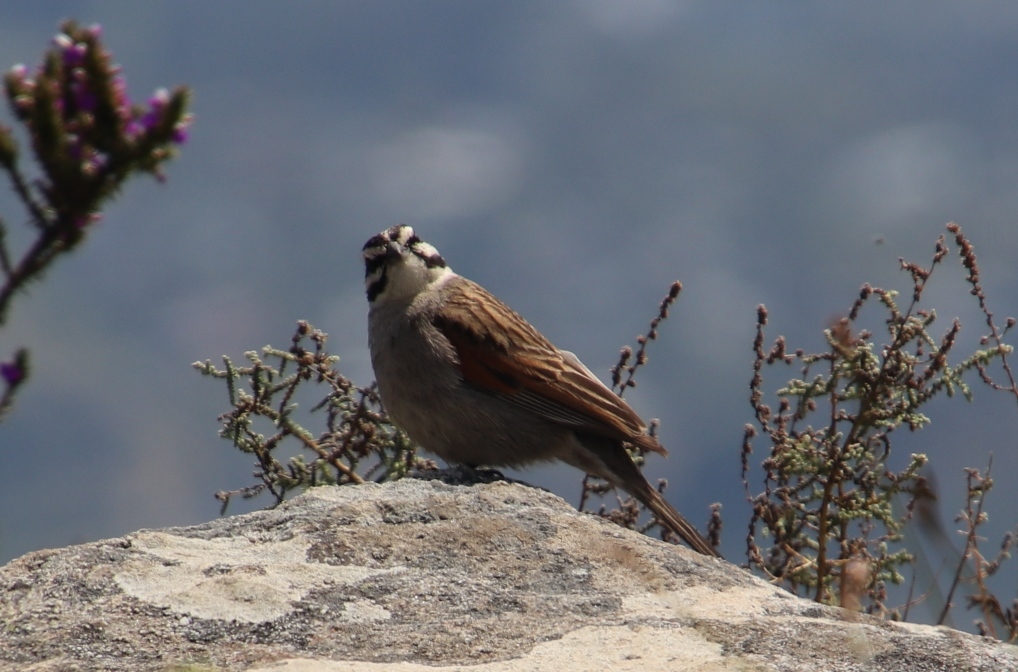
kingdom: Animalia
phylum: Chordata
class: Aves
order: Passeriformes
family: Emberizidae
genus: Emberiza
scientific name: Emberiza capensis
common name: Cape bunting
